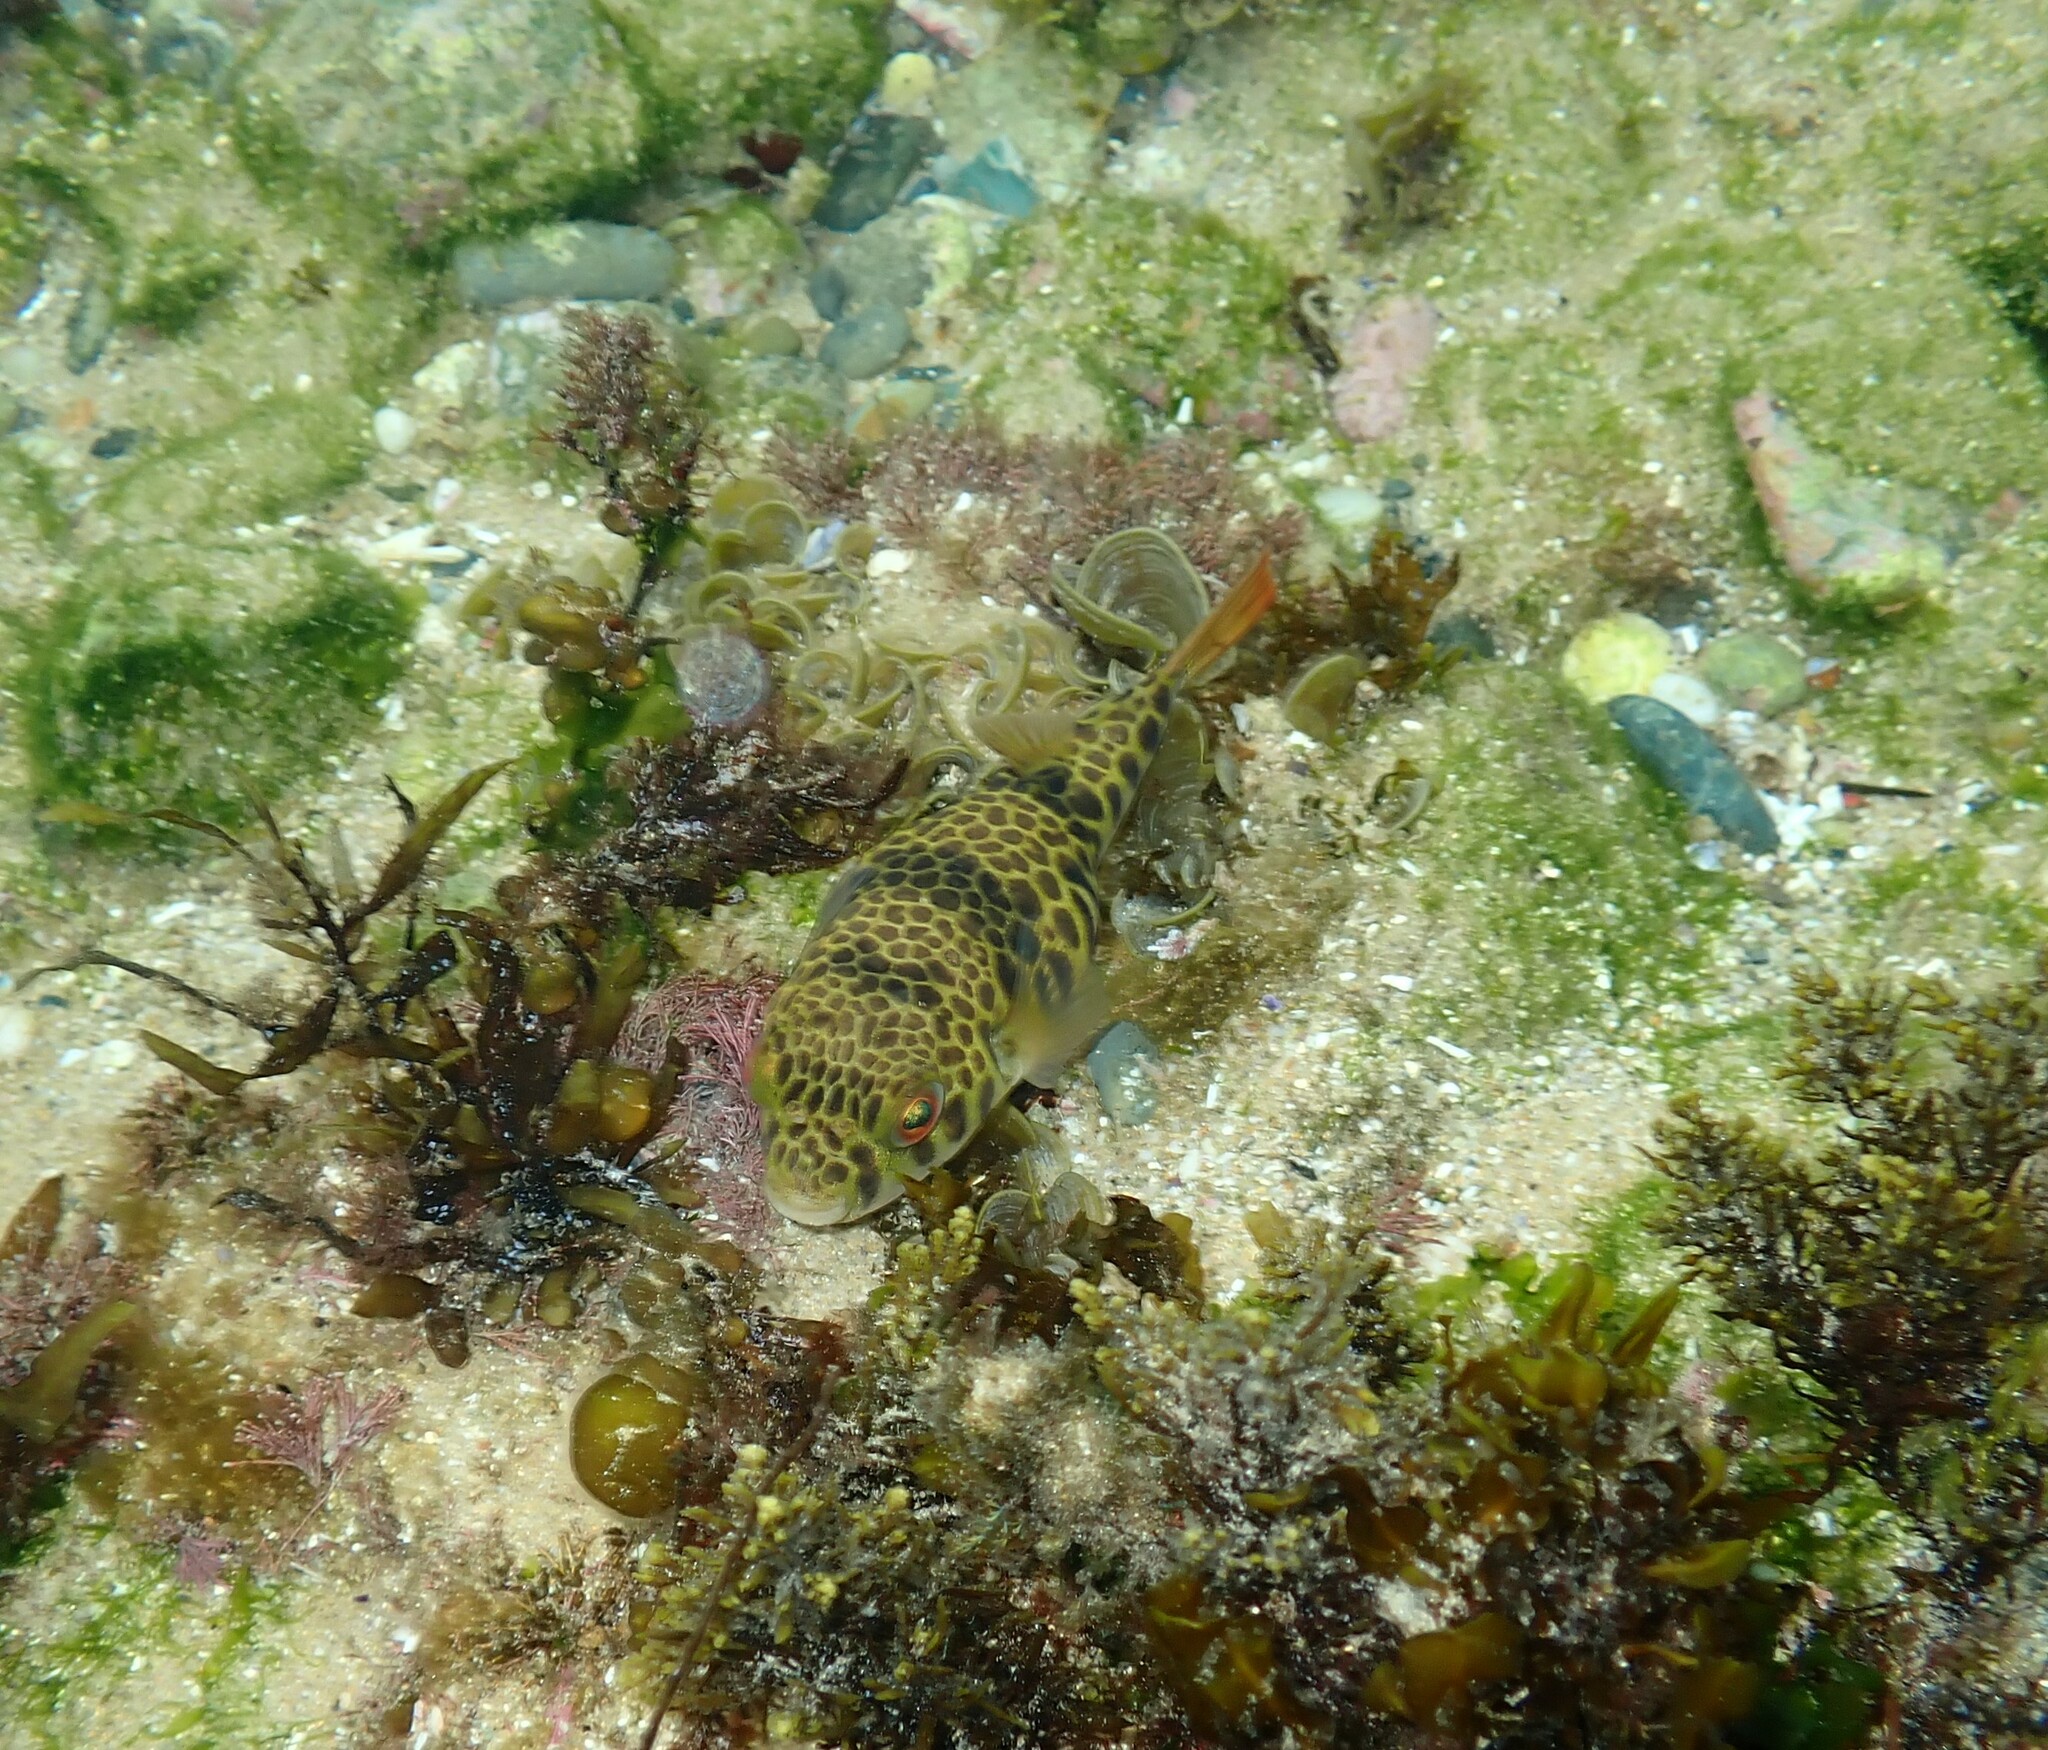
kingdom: Animalia
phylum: Chordata
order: Tetraodontiformes
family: Tetraodontidae
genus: Tetractenos
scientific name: Tetractenos glaber
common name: Smooth toadfish
